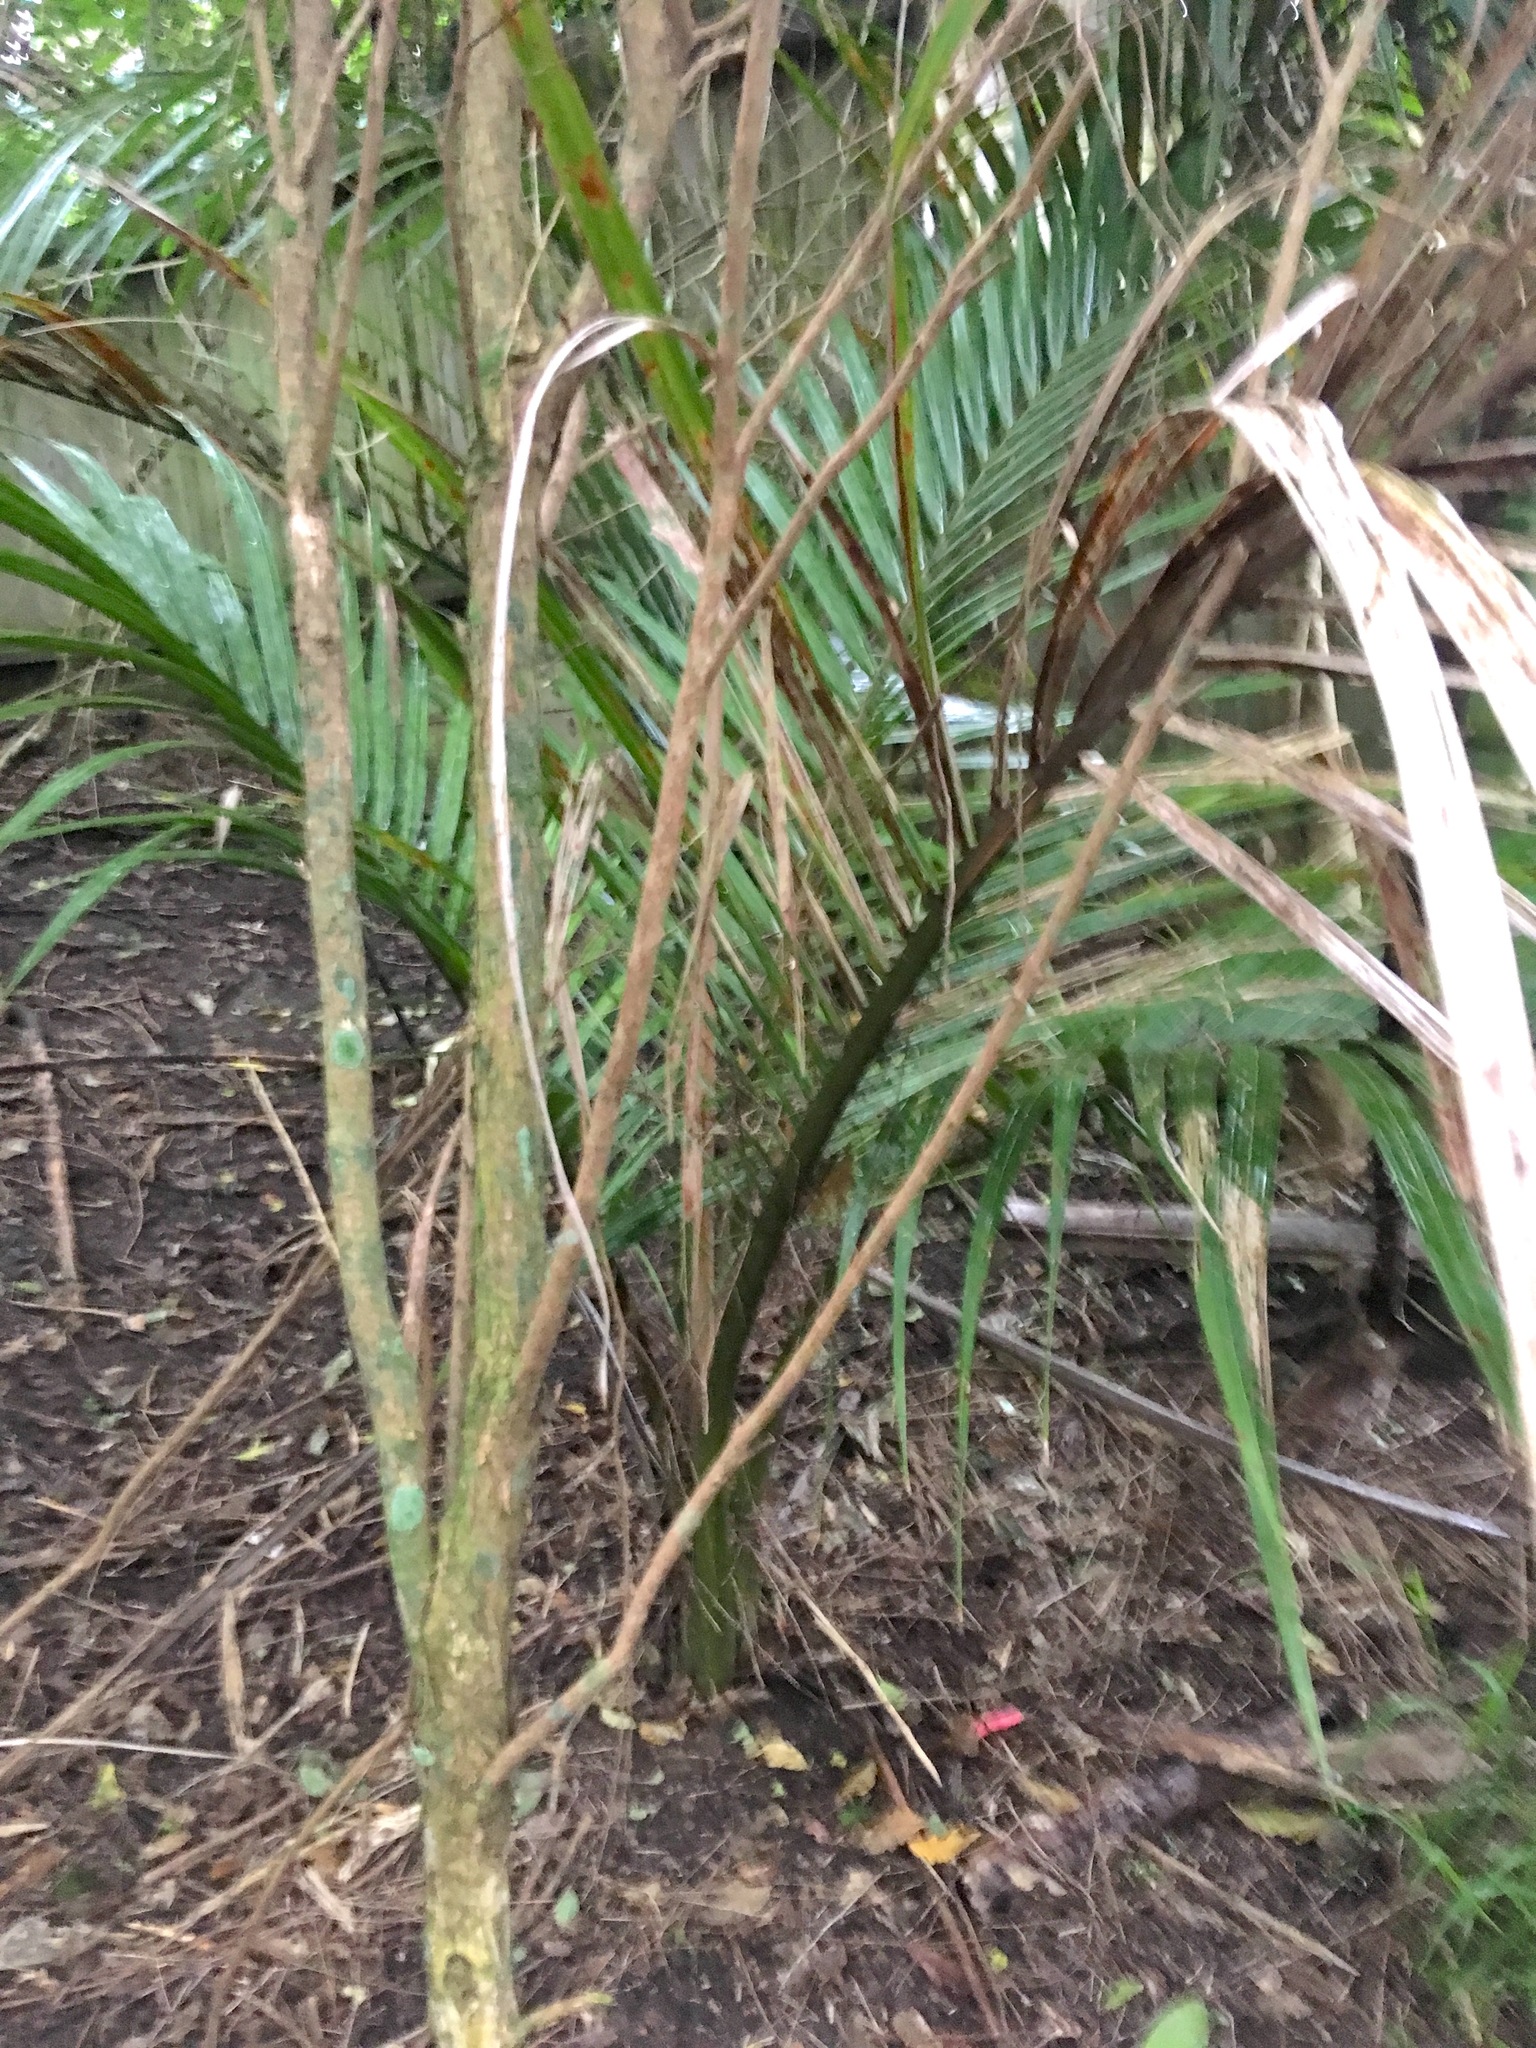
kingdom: Plantae
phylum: Tracheophyta
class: Liliopsida
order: Arecales
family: Arecaceae
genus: Rhopalostylis
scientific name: Rhopalostylis sapida
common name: Feather-duster palm
